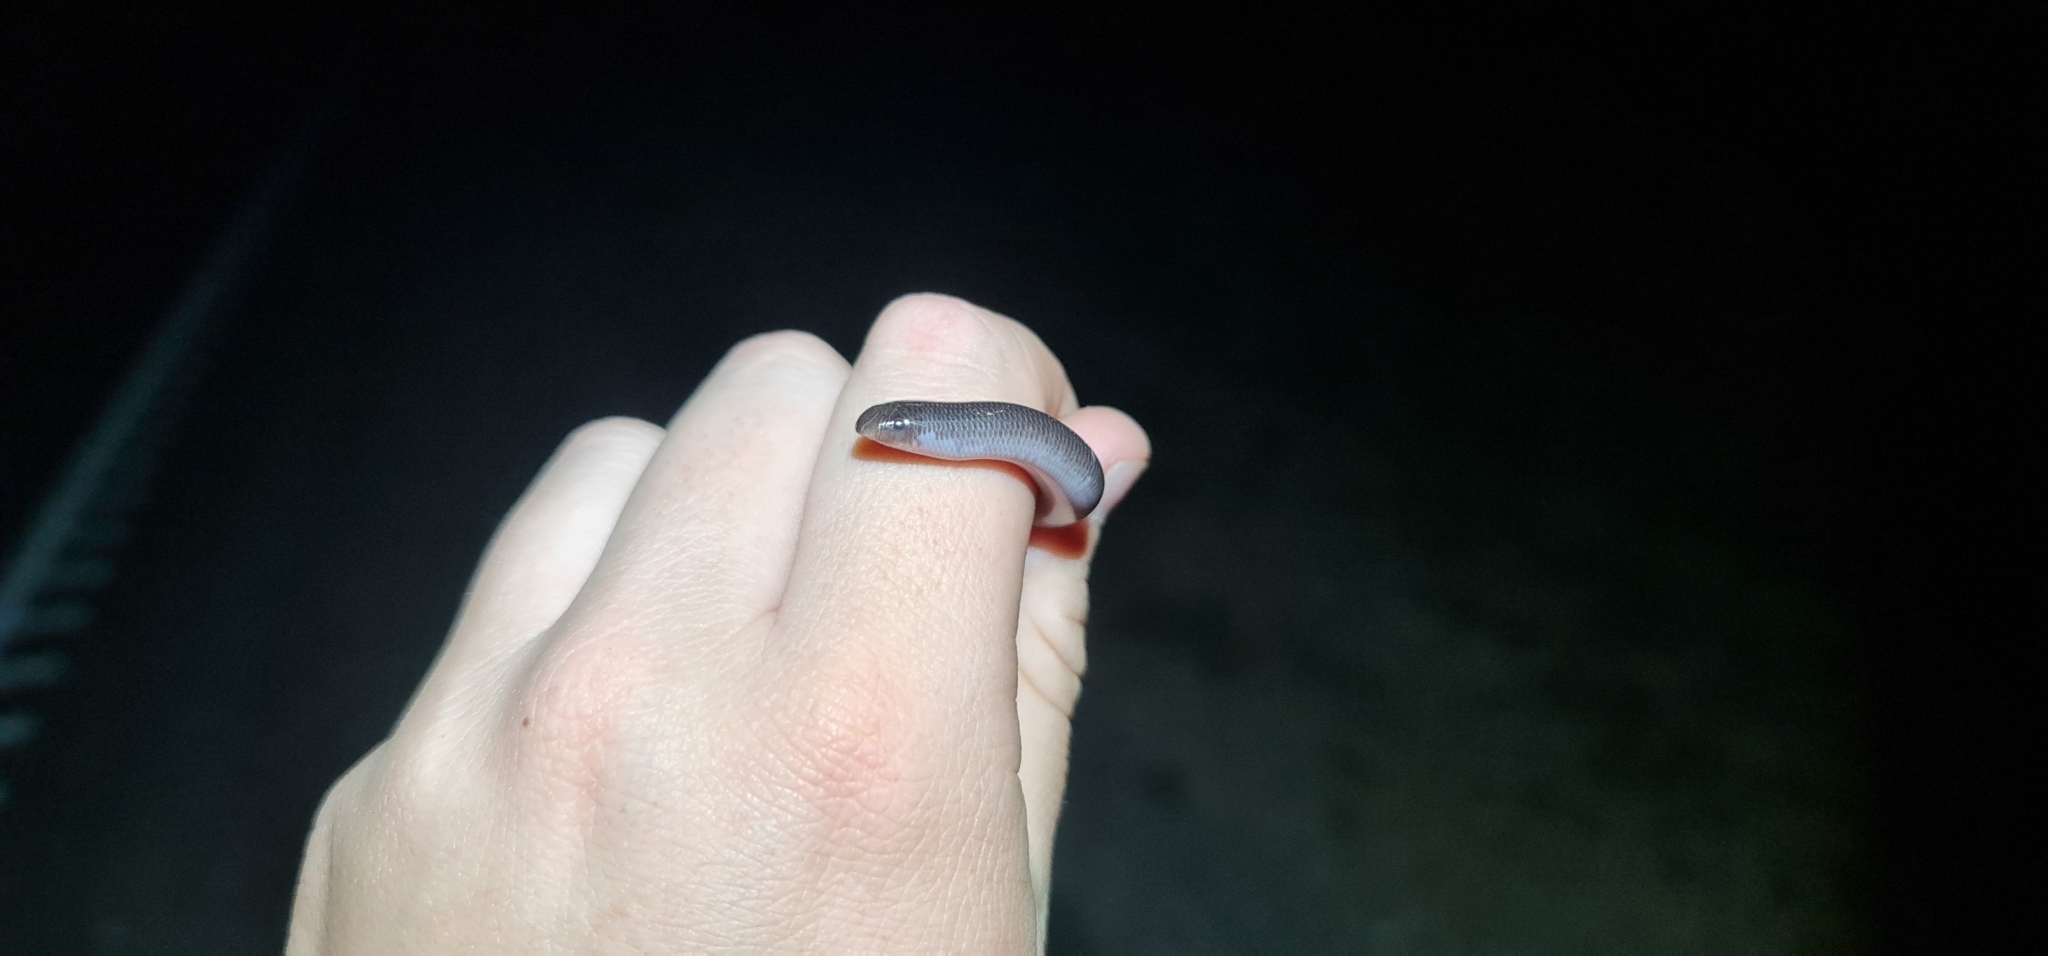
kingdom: Animalia
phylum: Chordata
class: Squamata
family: Typhlopidae
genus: Anilios
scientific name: Anilios bicolor
